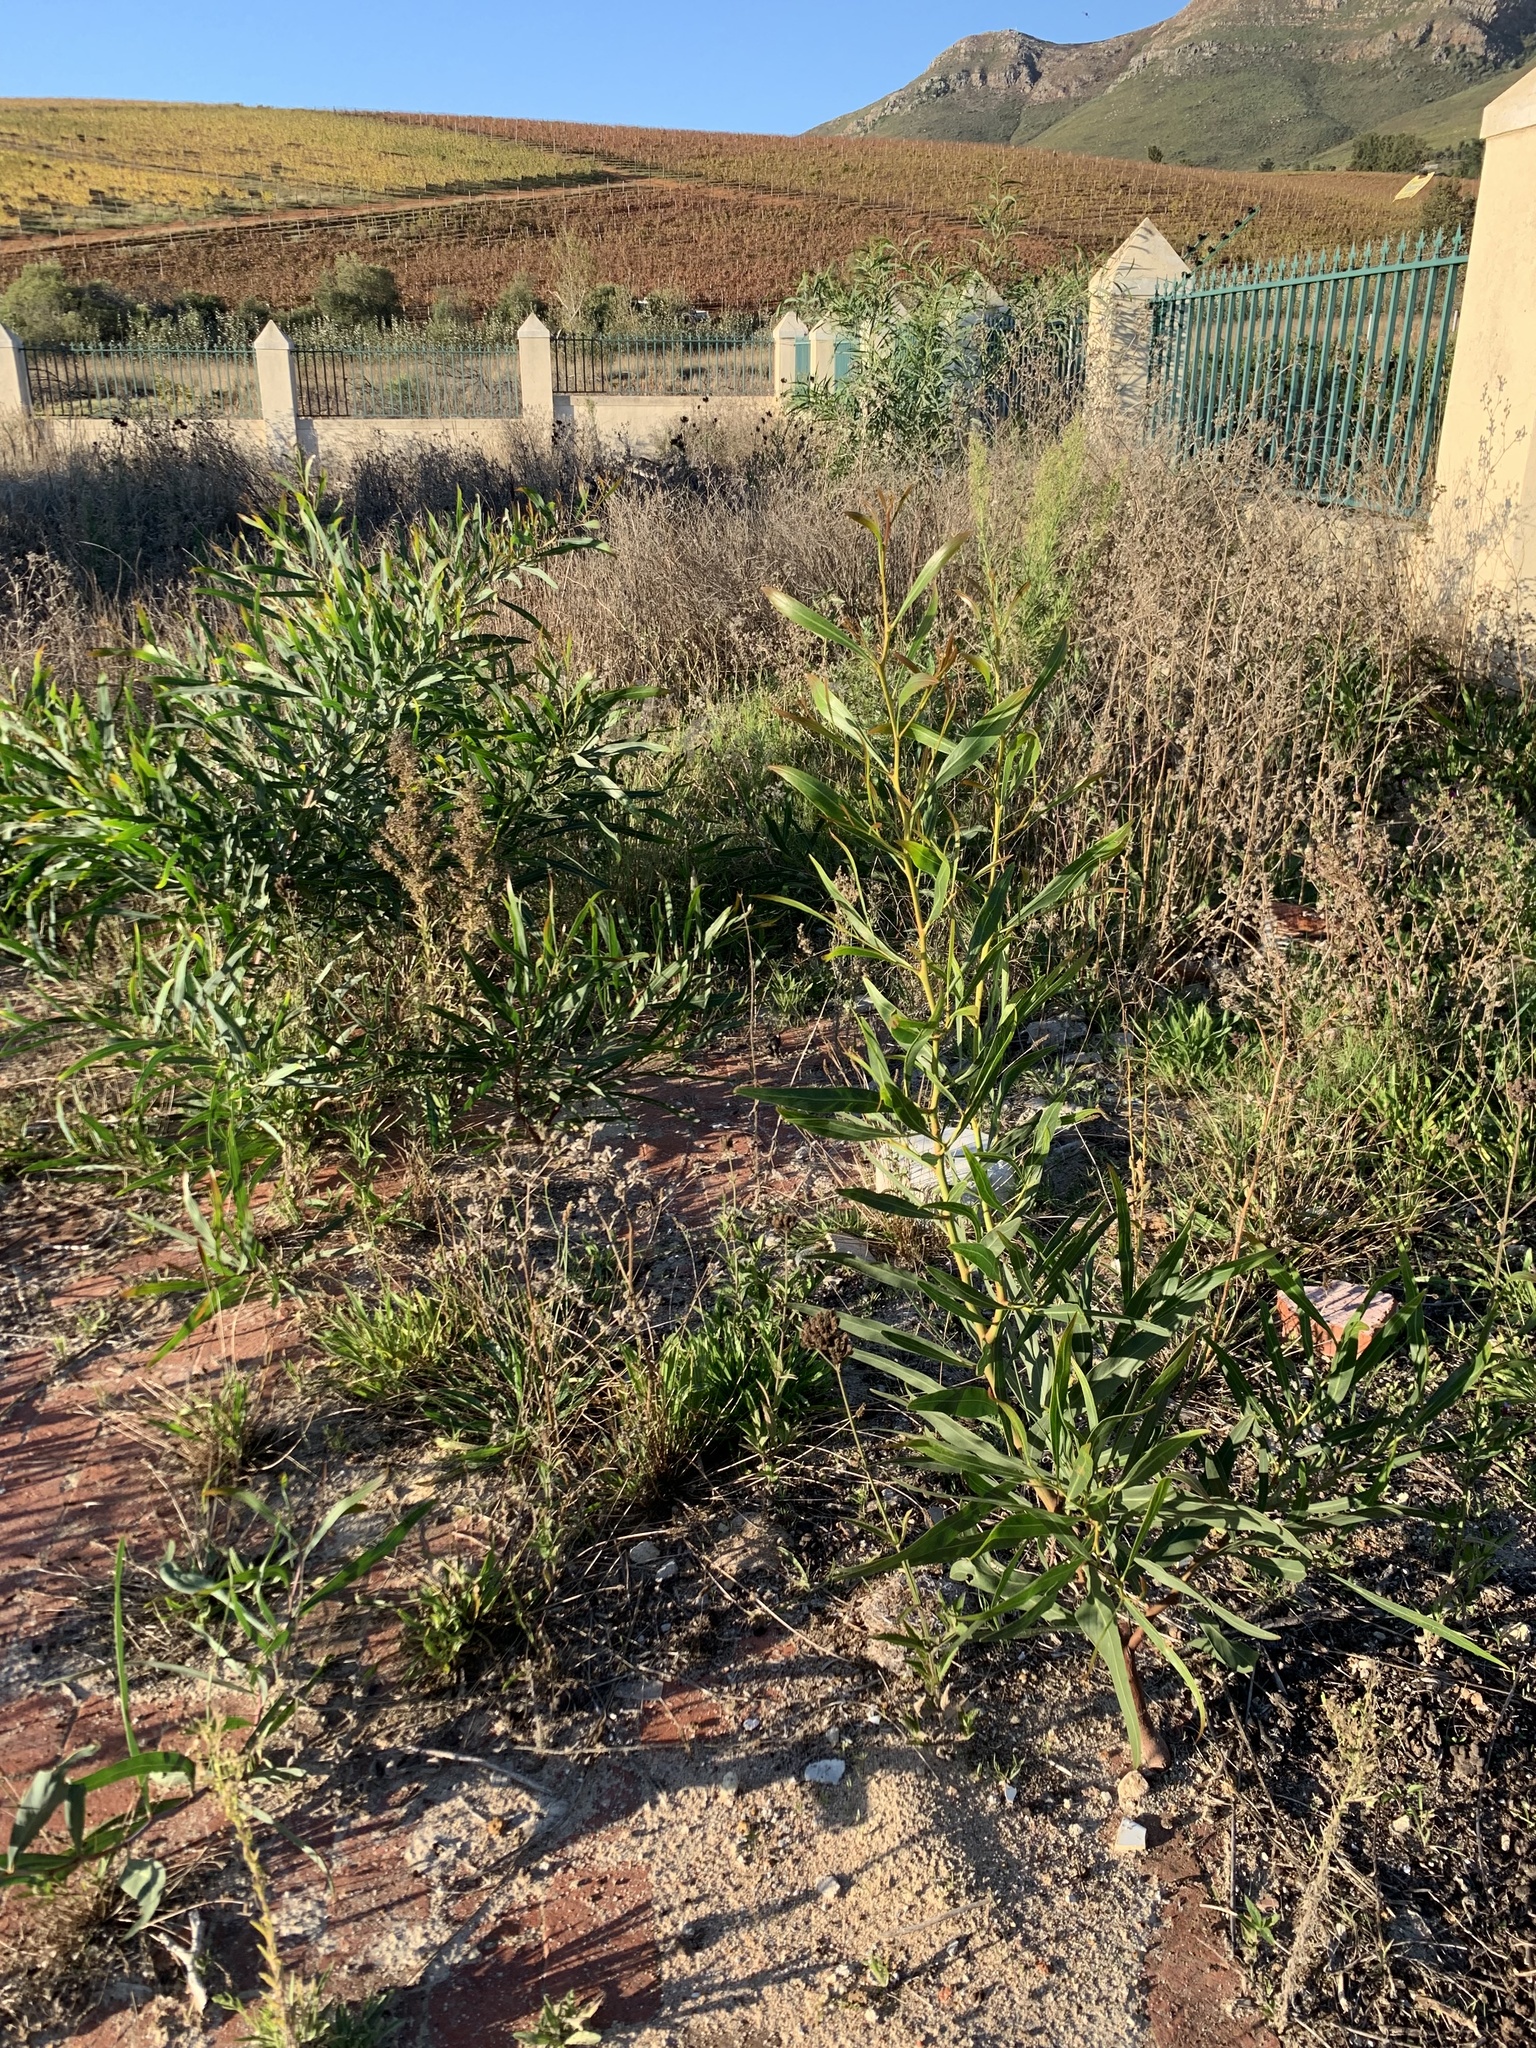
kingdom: Plantae
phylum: Tracheophyta
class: Magnoliopsida
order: Fabales
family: Fabaceae
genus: Acacia
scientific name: Acacia saligna
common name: Orange wattle
